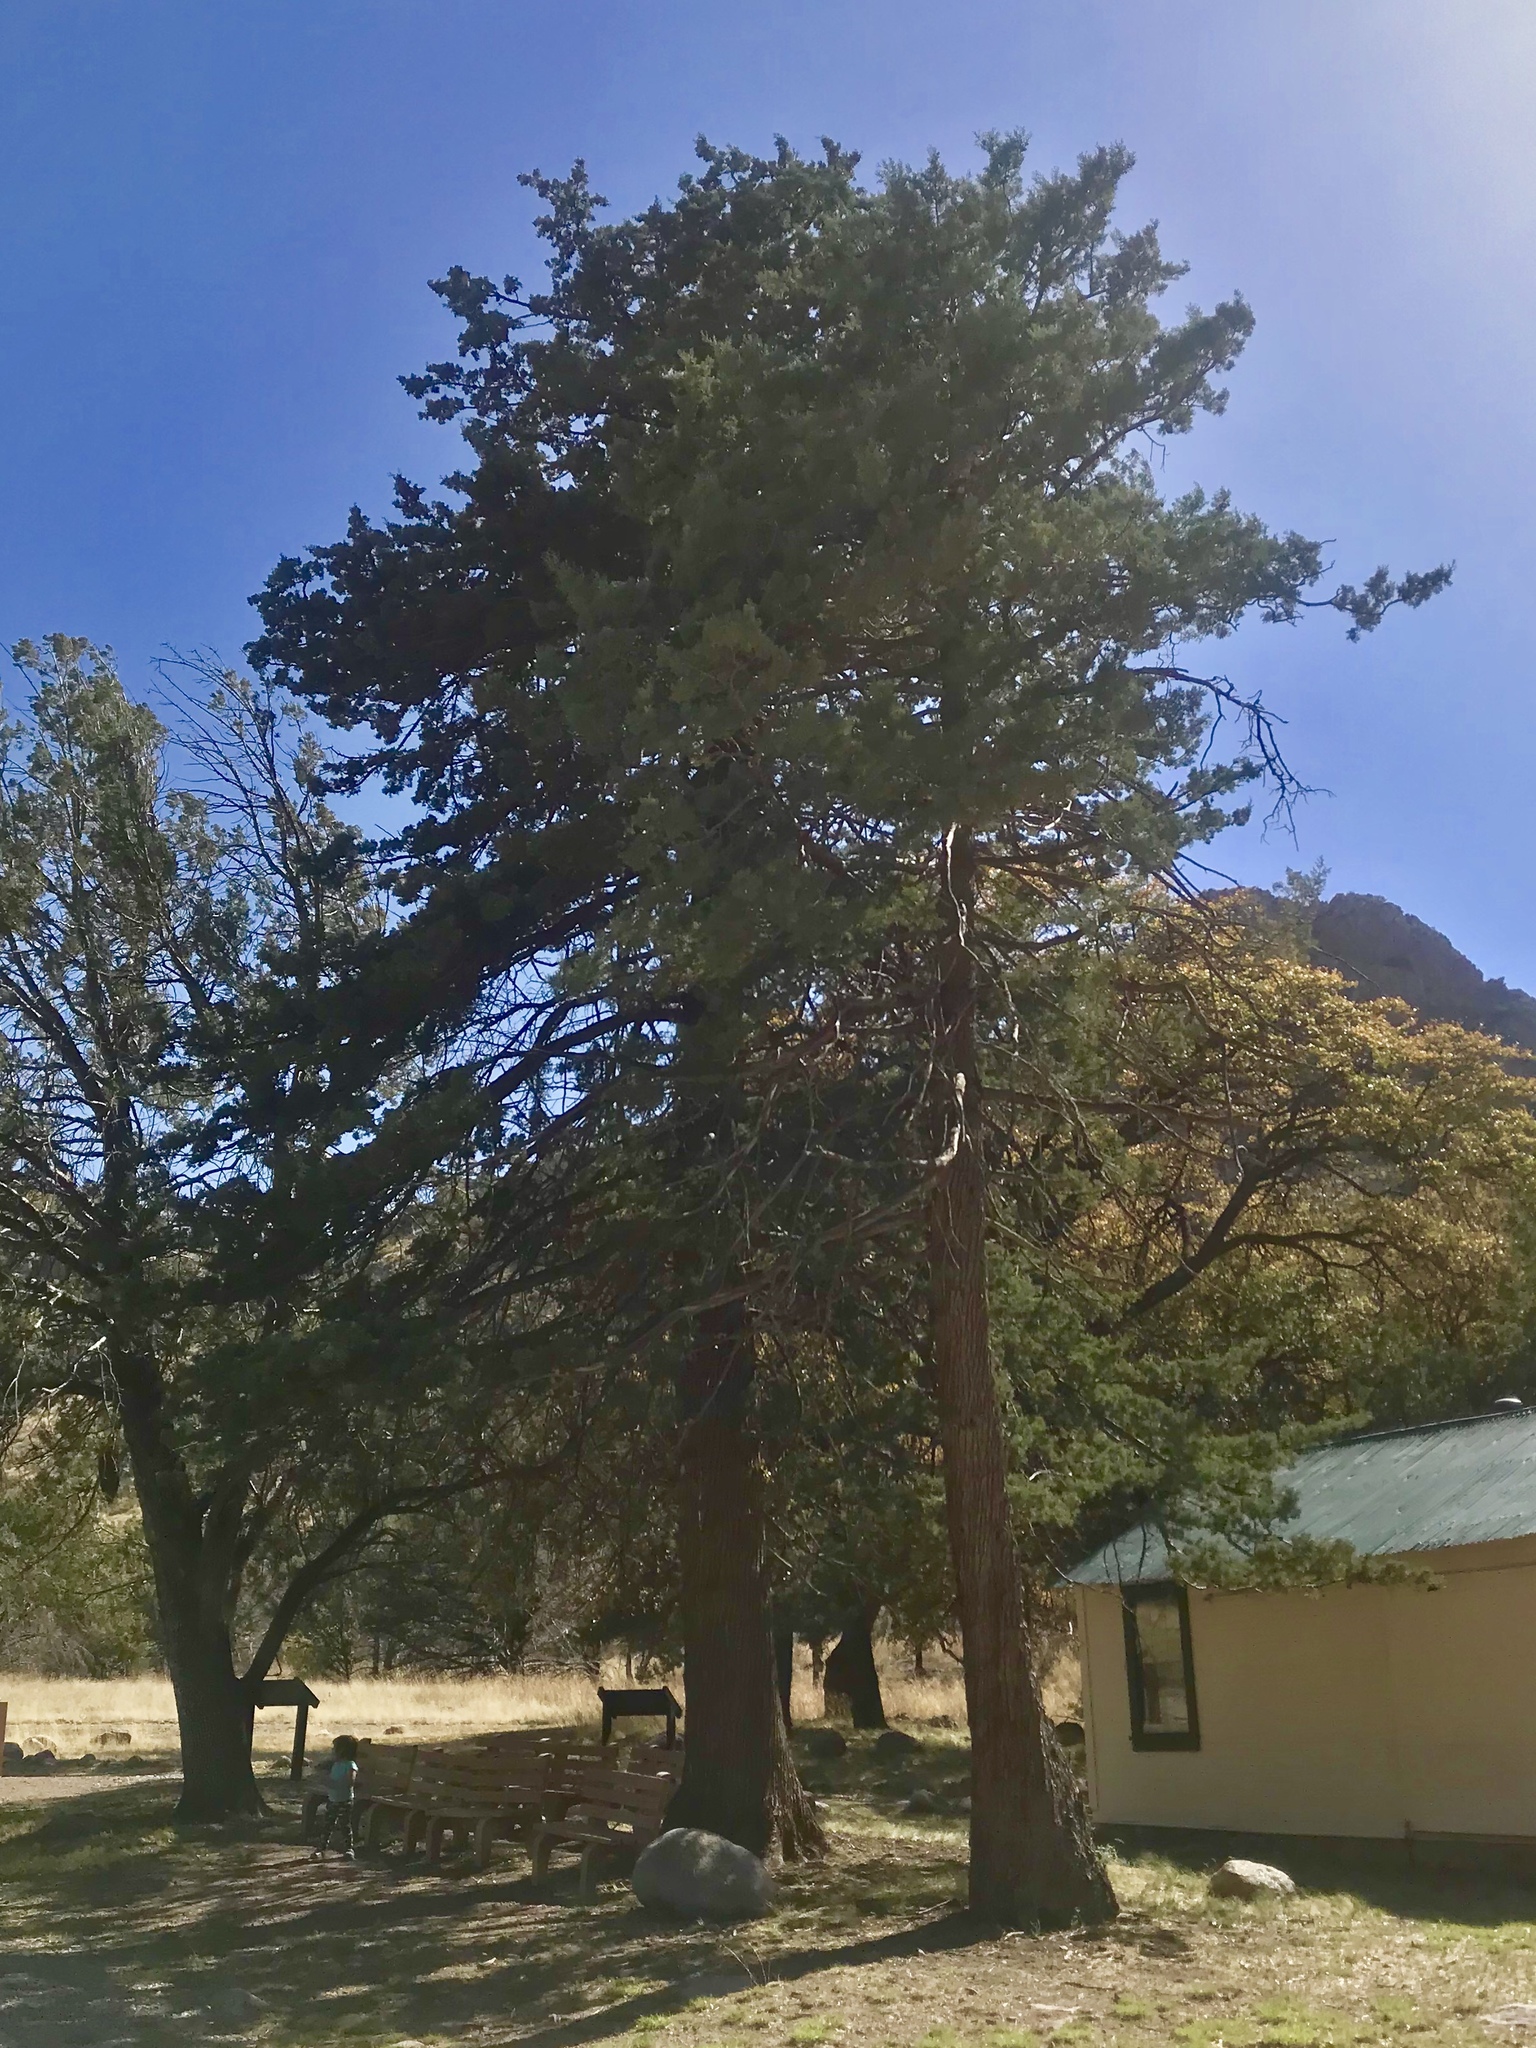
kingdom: Plantae
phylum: Tracheophyta
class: Pinopsida
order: Pinales
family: Cupressaceae
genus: Cupressus
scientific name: Cupressus arizonica
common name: Arizona cypress
